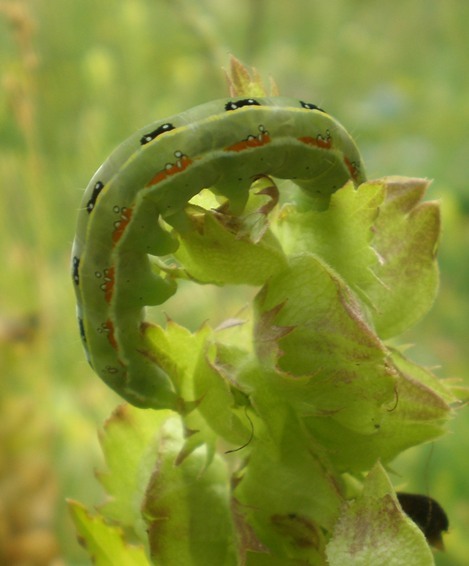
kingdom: Animalia
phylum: Arthropoda
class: Insecta
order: Lepidoptera
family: Noctuidae
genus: Xylena
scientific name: Xylena exsoleta
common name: Sword-grass
